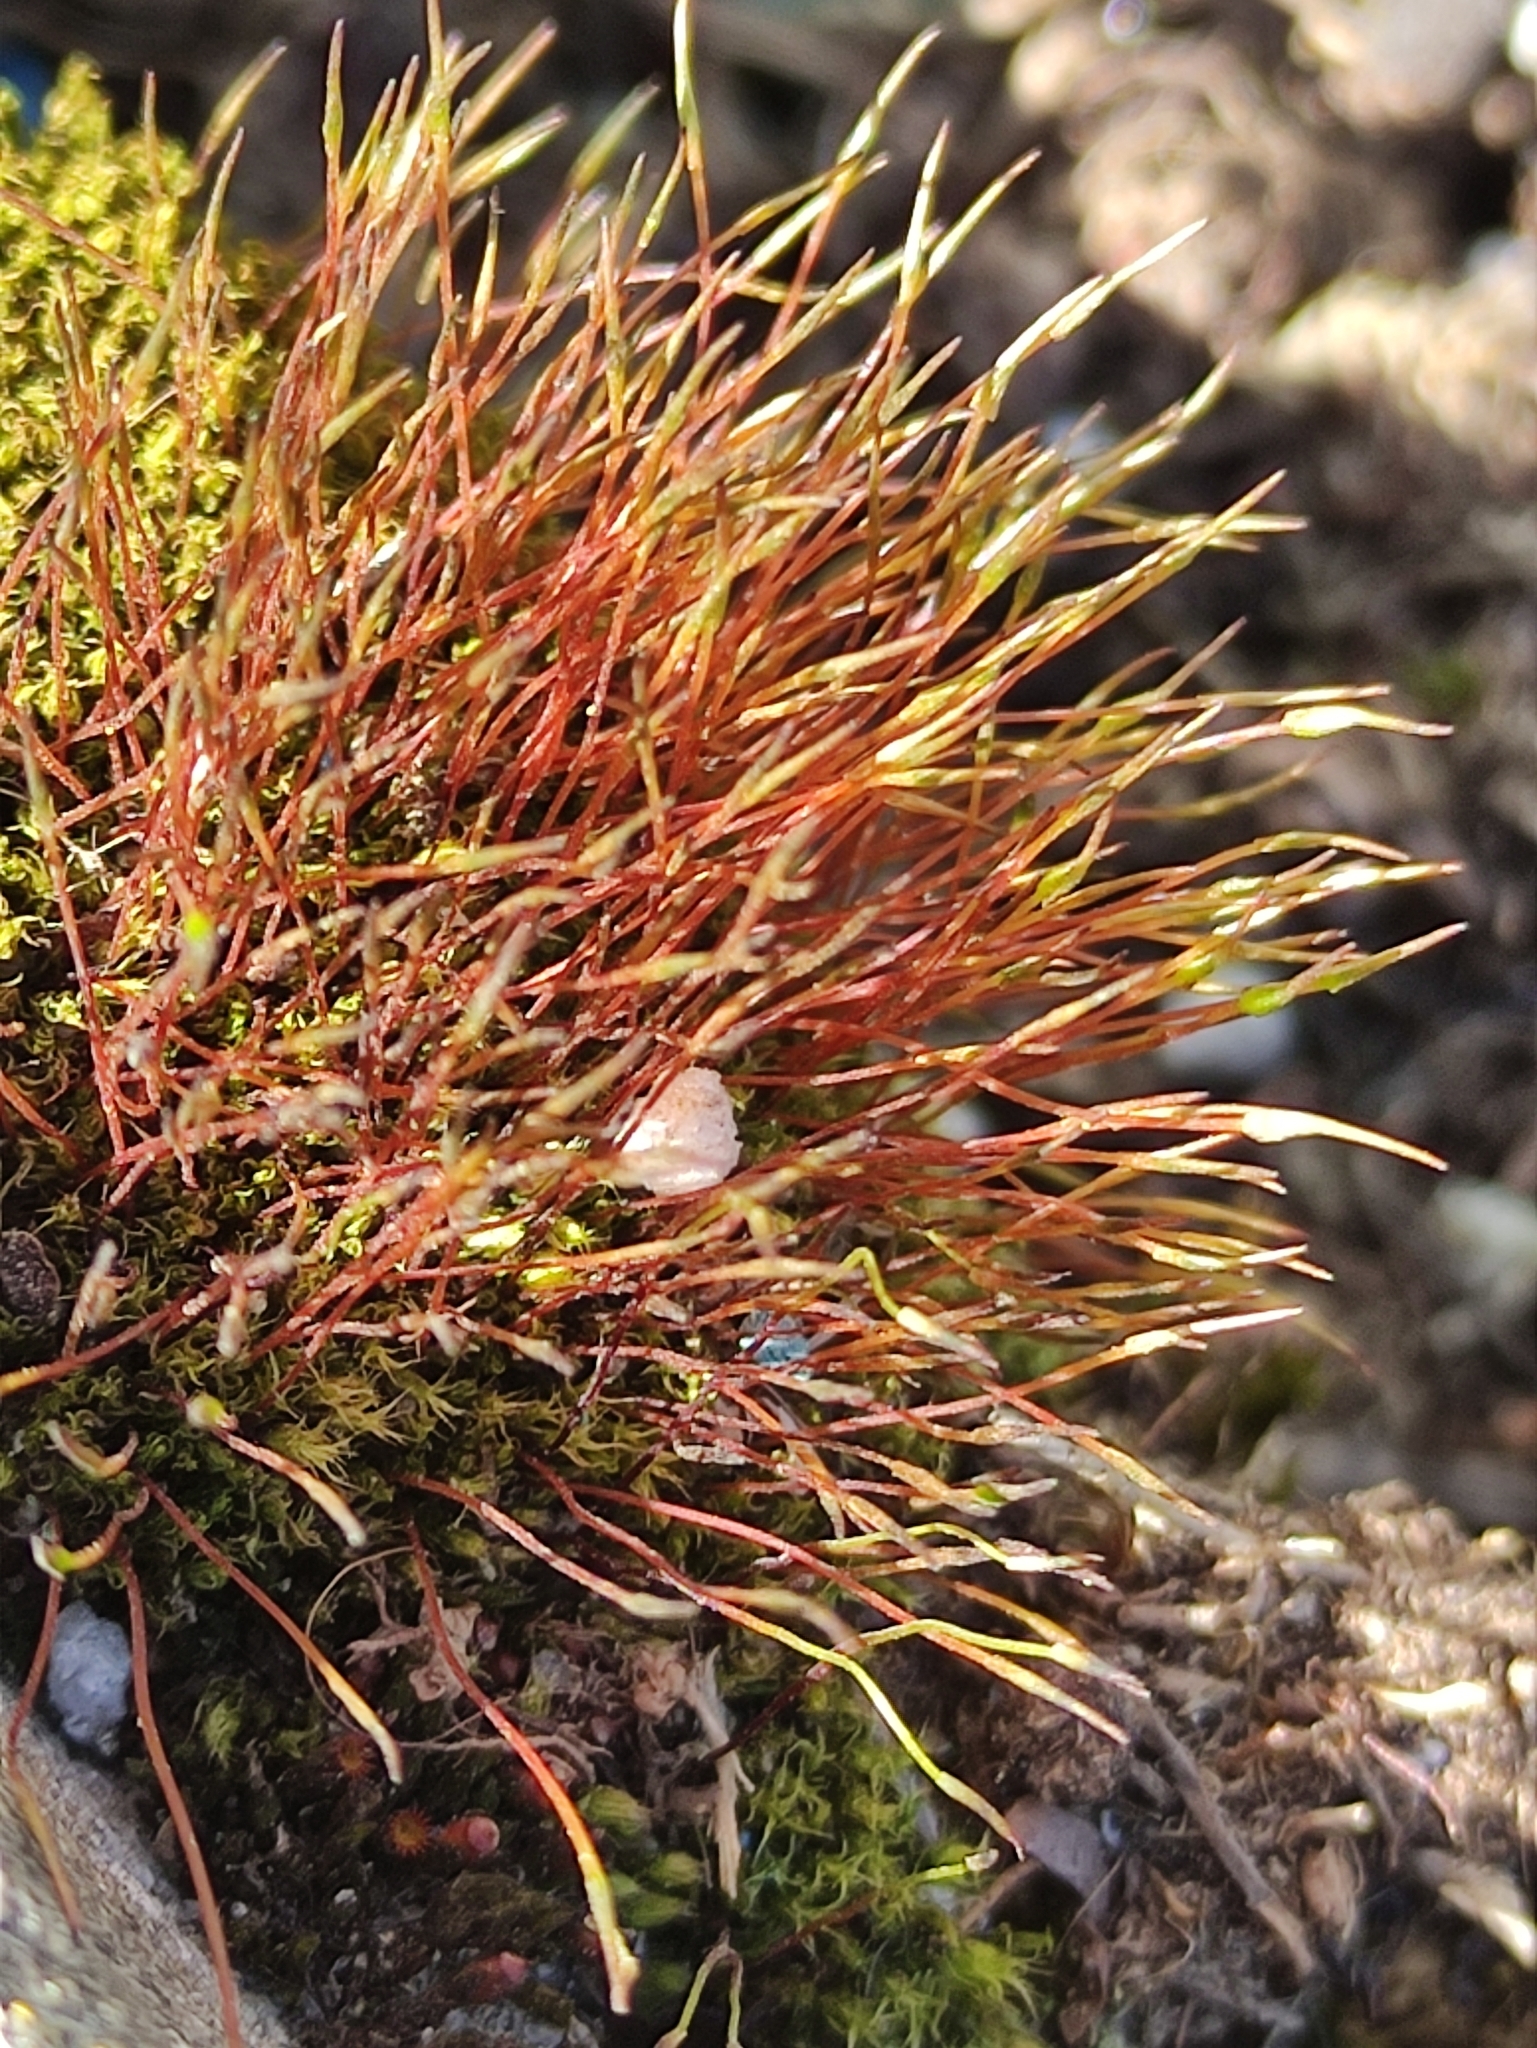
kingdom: Plantae
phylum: Bryophyta
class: Bryopsida
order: Dicranales
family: Ditrichaceae
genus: Ceratodon
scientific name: Ceratodon purpureus
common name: Redshank
